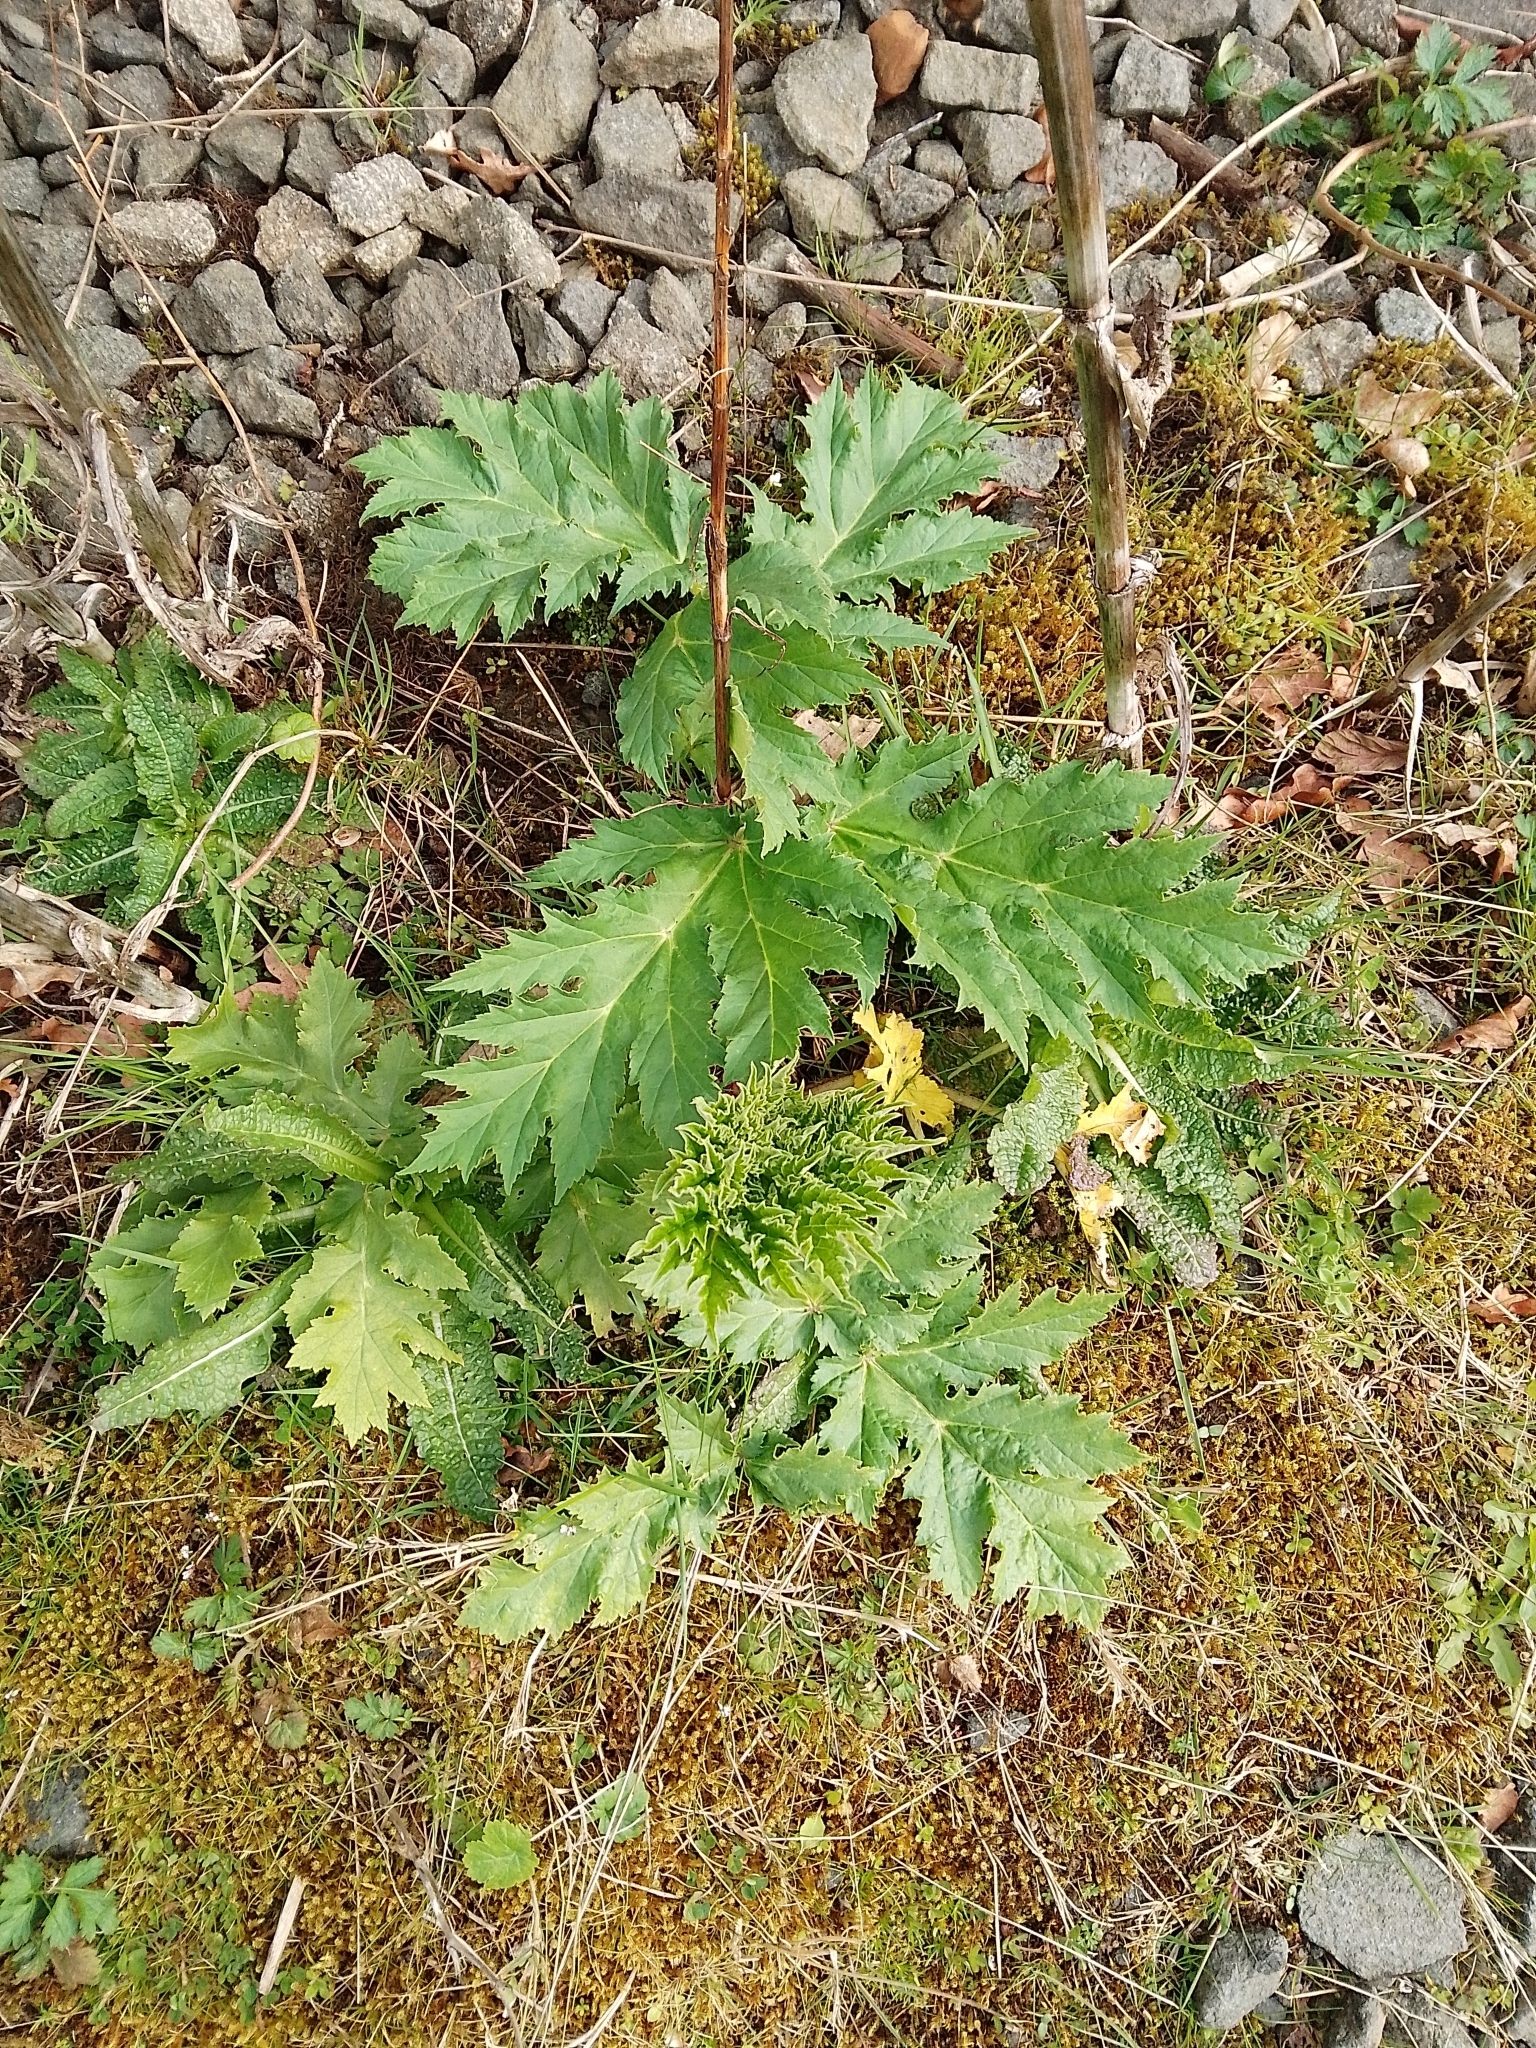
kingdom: Plantae
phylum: Tracheophyta
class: Magnoliopsida
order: Apiales
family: Apiaceae
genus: Heracleum
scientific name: Heracleum mantegazzianum
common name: Giant hogweed
